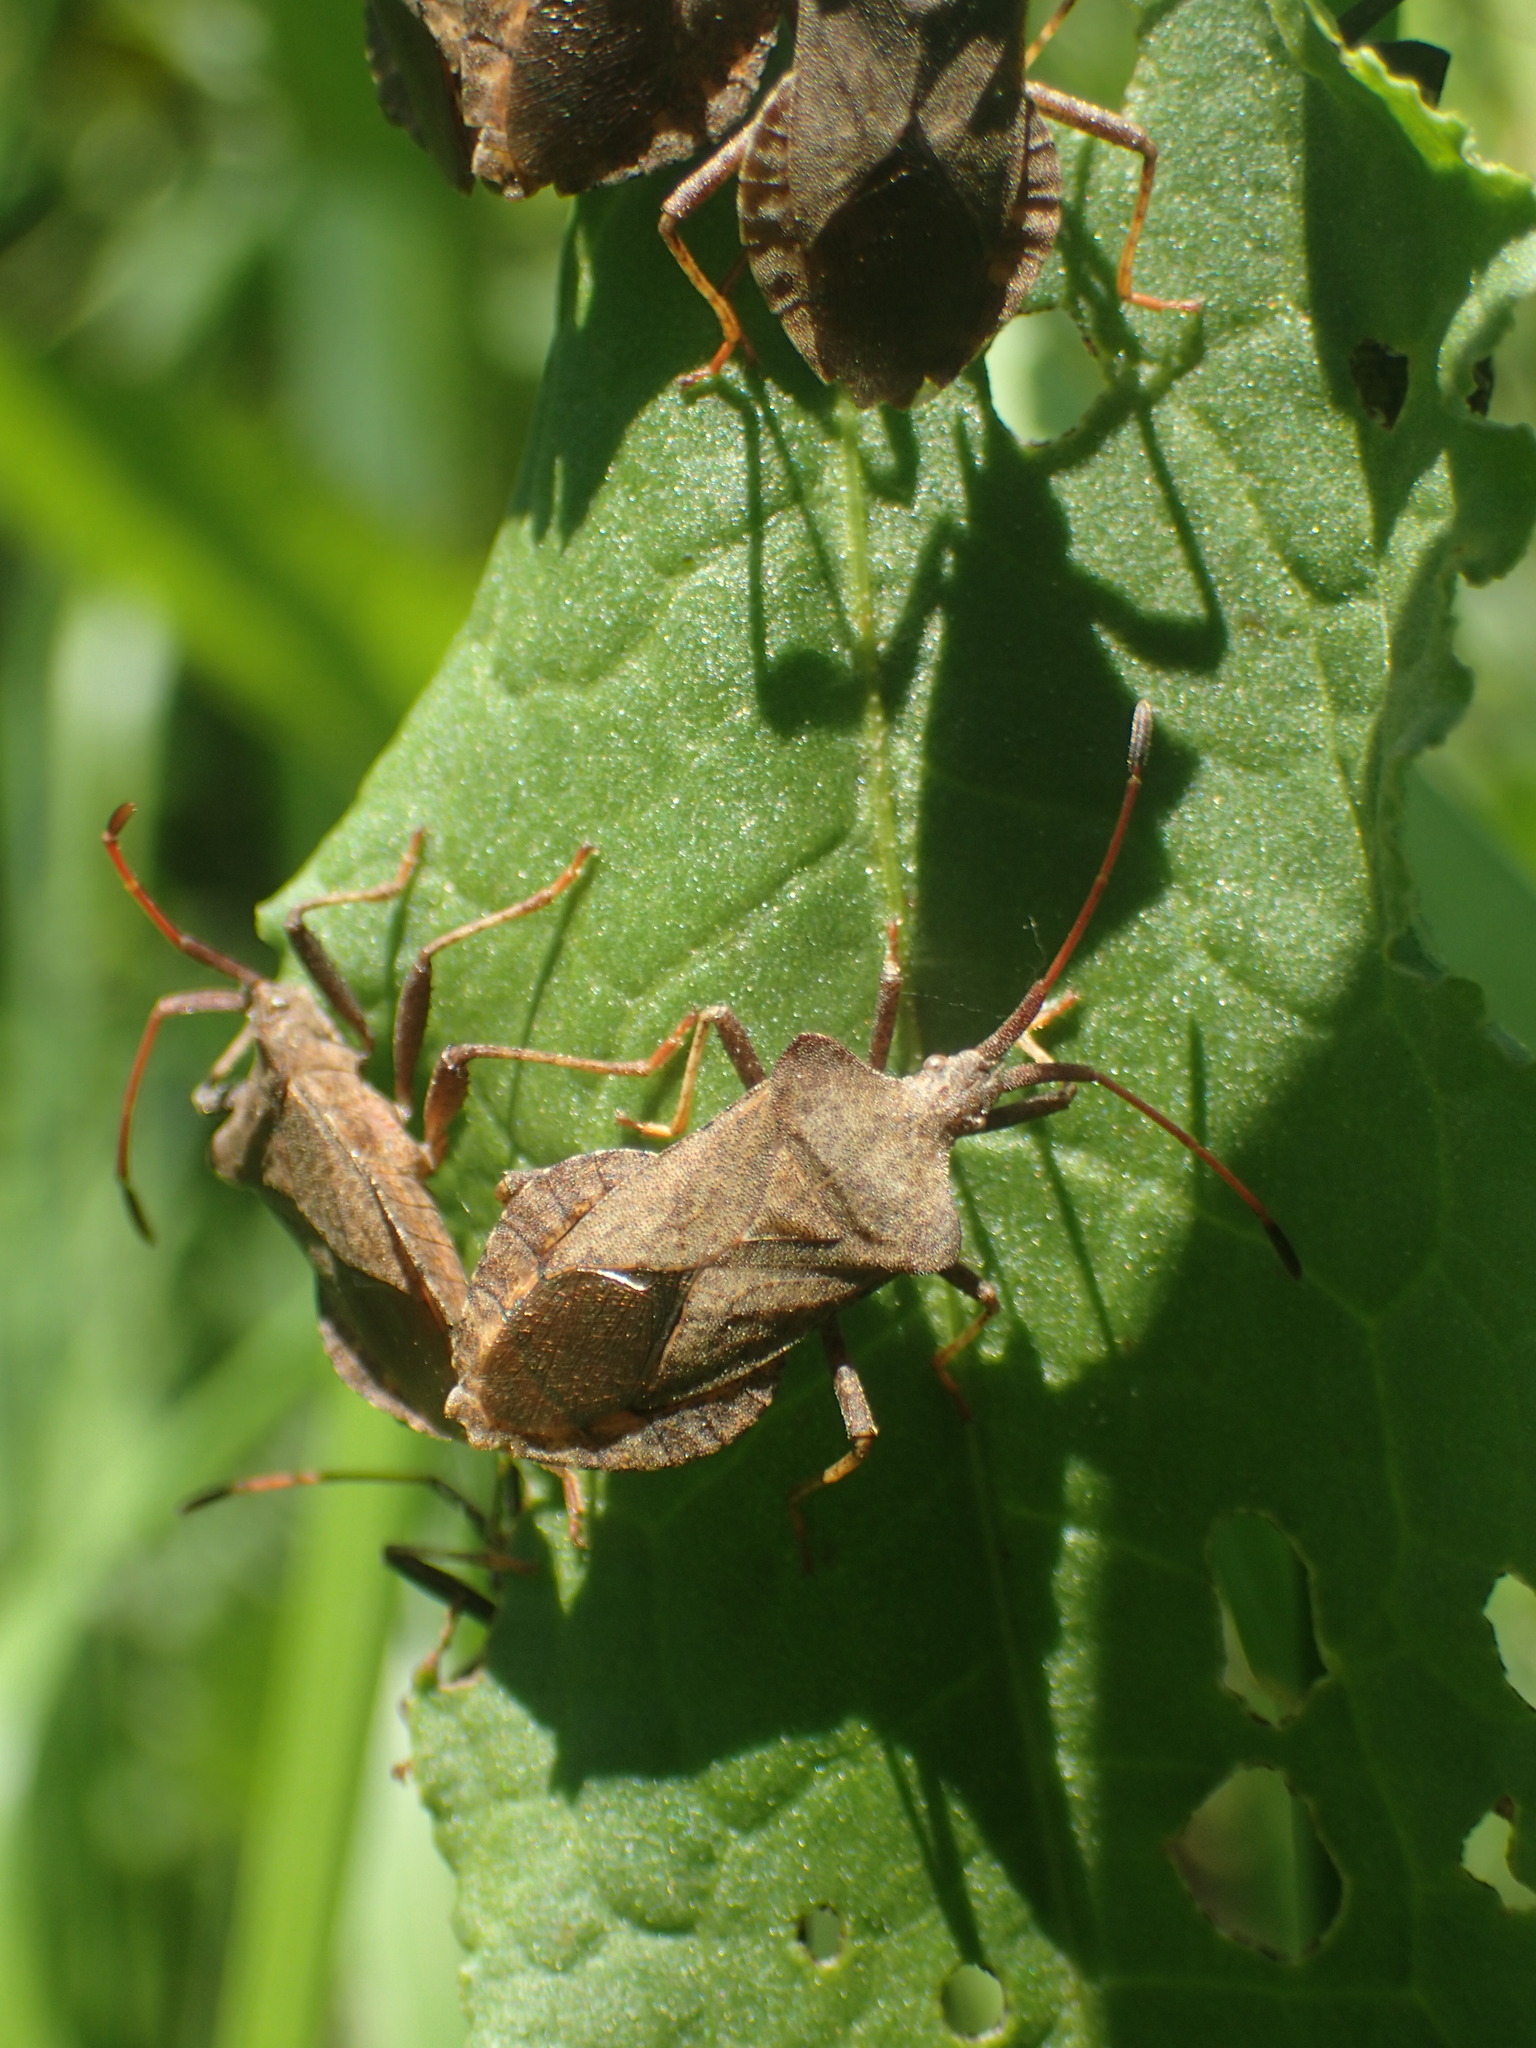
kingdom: Animalia
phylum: Arthropoda
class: Insecta
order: Hemiptera
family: Coreidae
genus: Coreus
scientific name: Coreus marginatus
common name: Dock bug
